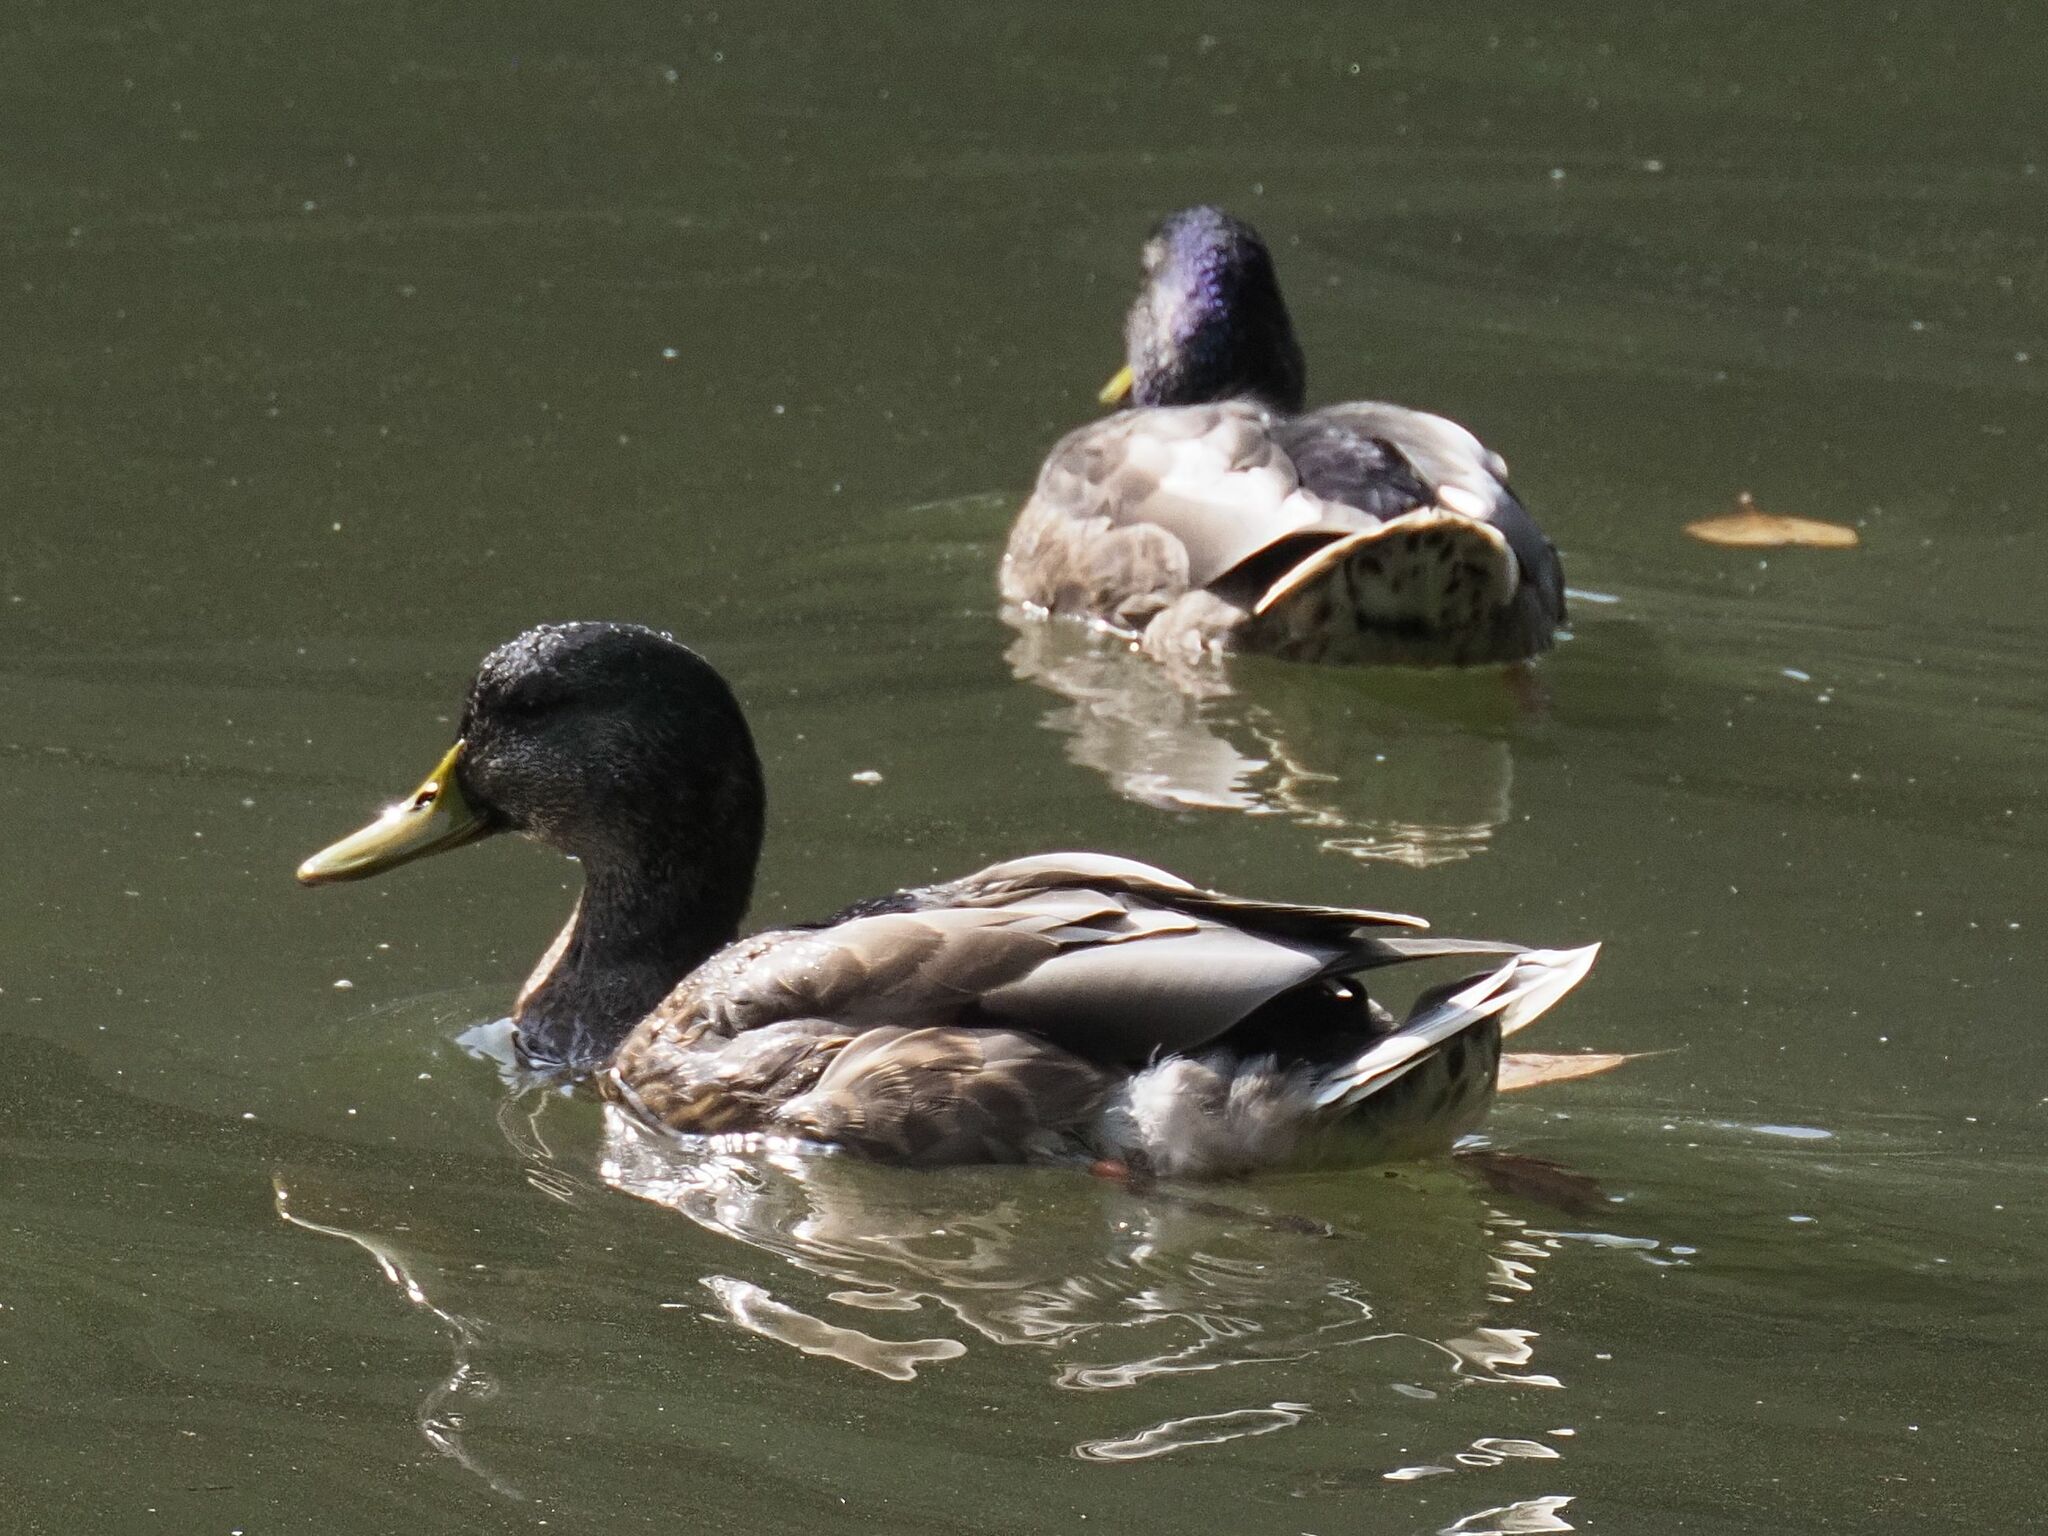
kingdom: Animalia
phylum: Chordata
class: Aves
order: Anseriformes
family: Anatidae
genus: Anas
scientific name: Anas platyrhynchos
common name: Mallard
